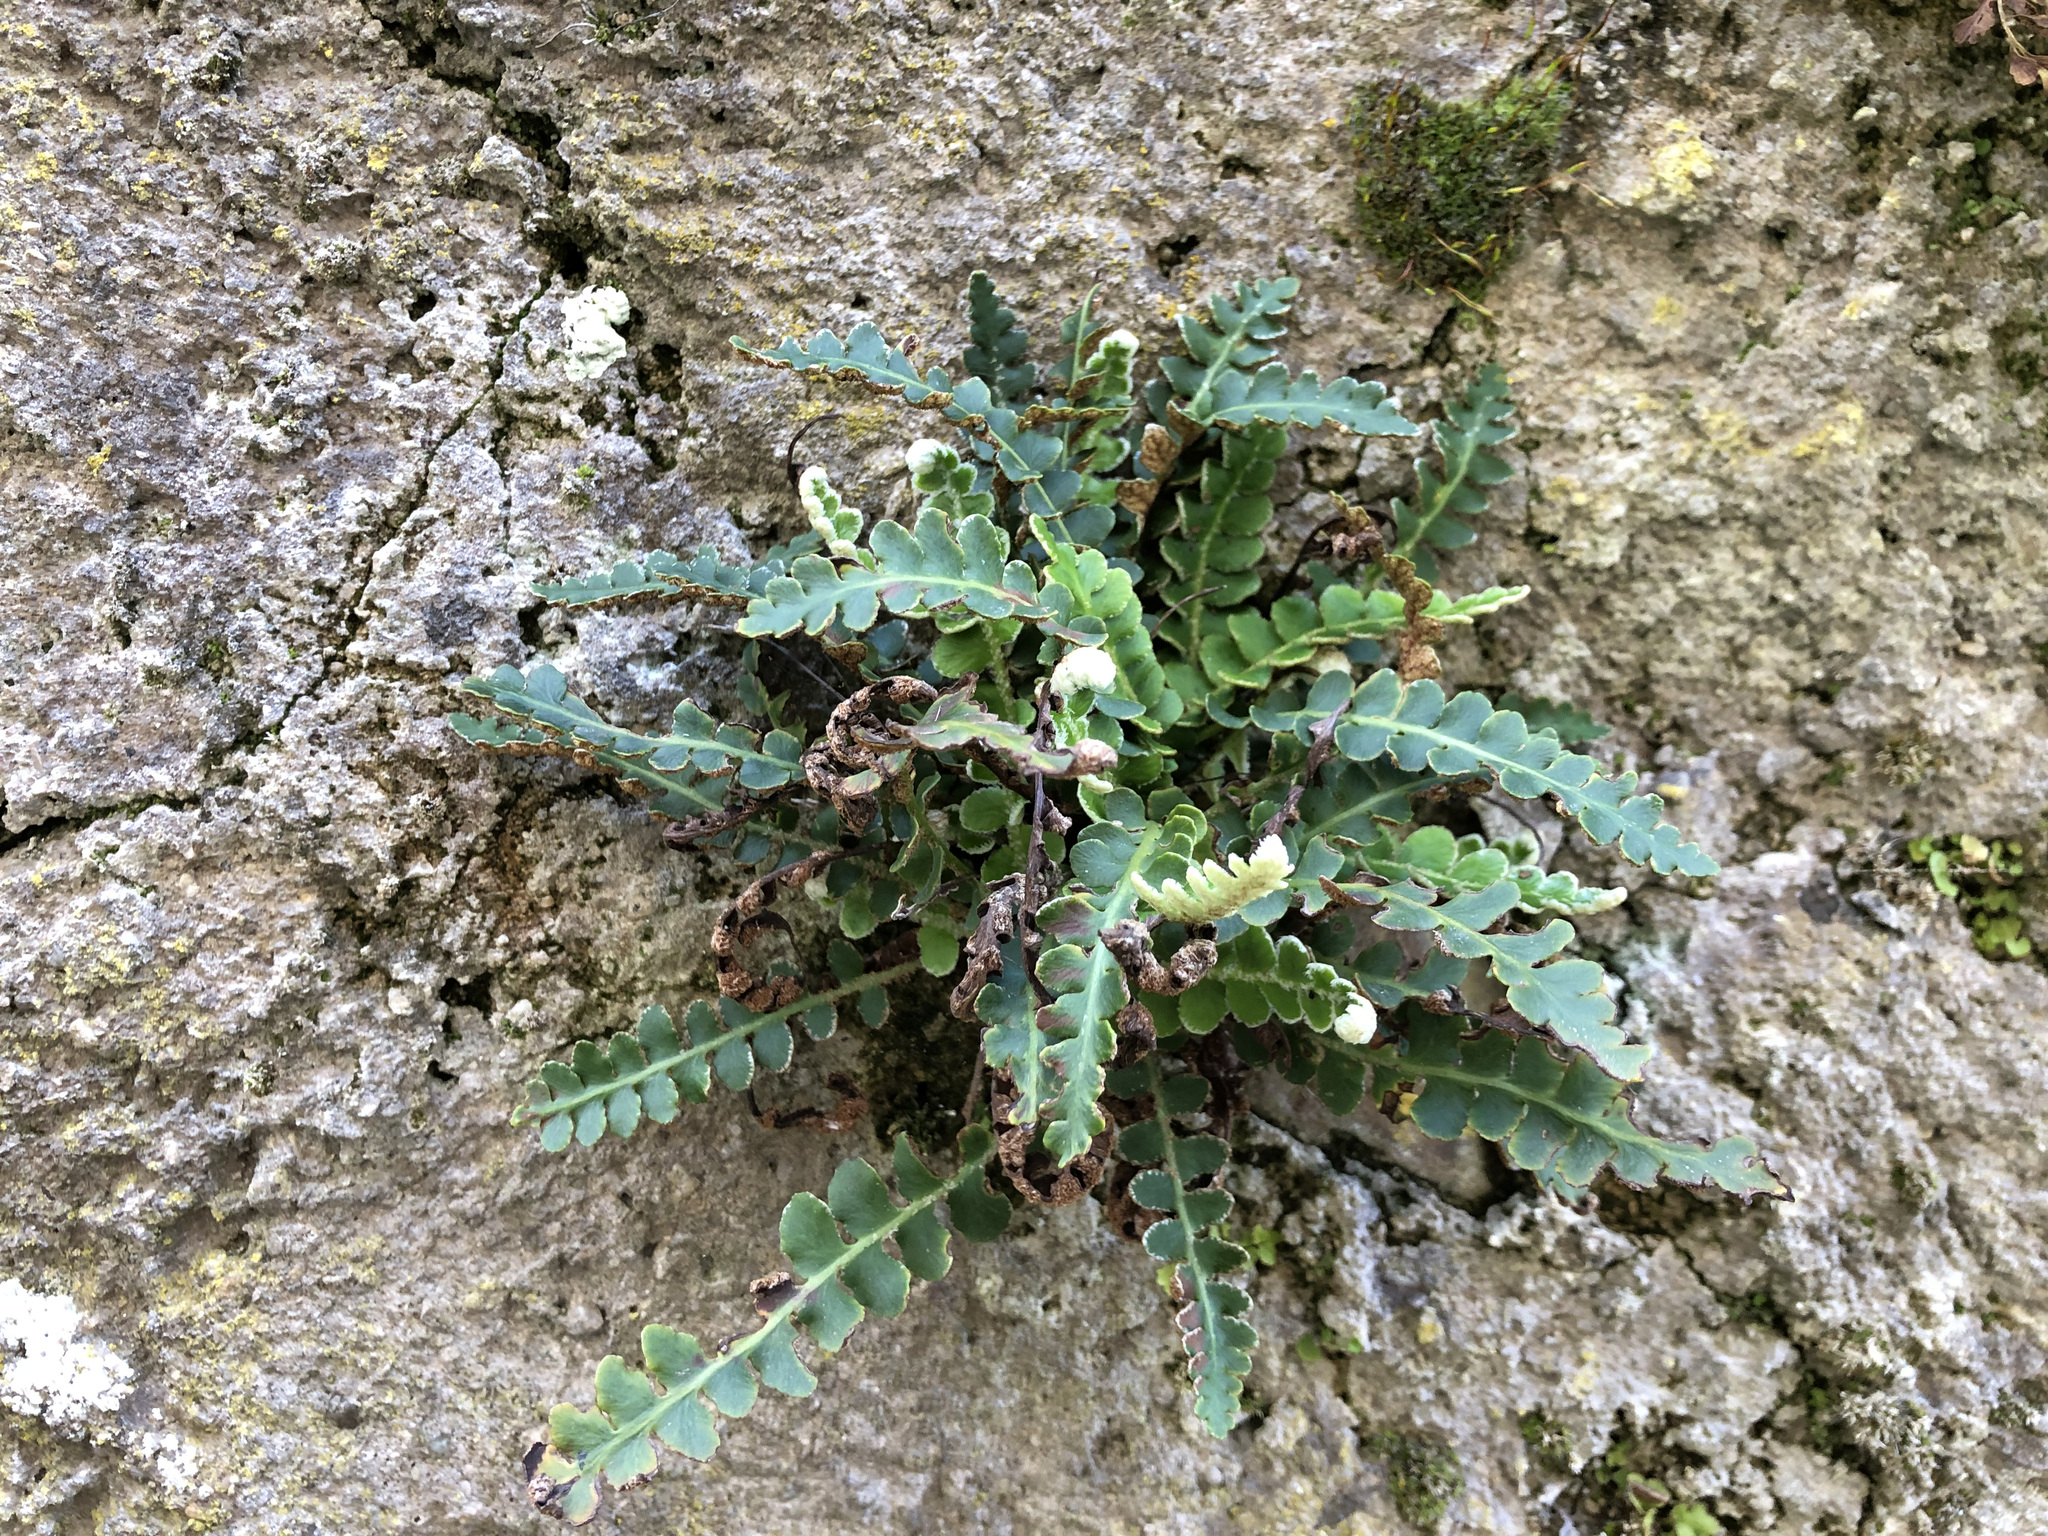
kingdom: Plantae
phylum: Tracheophyta
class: Polypodiopsida
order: Polypodiales
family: Aspleniaceae
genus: Asplenium
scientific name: Asplenium ceterach
